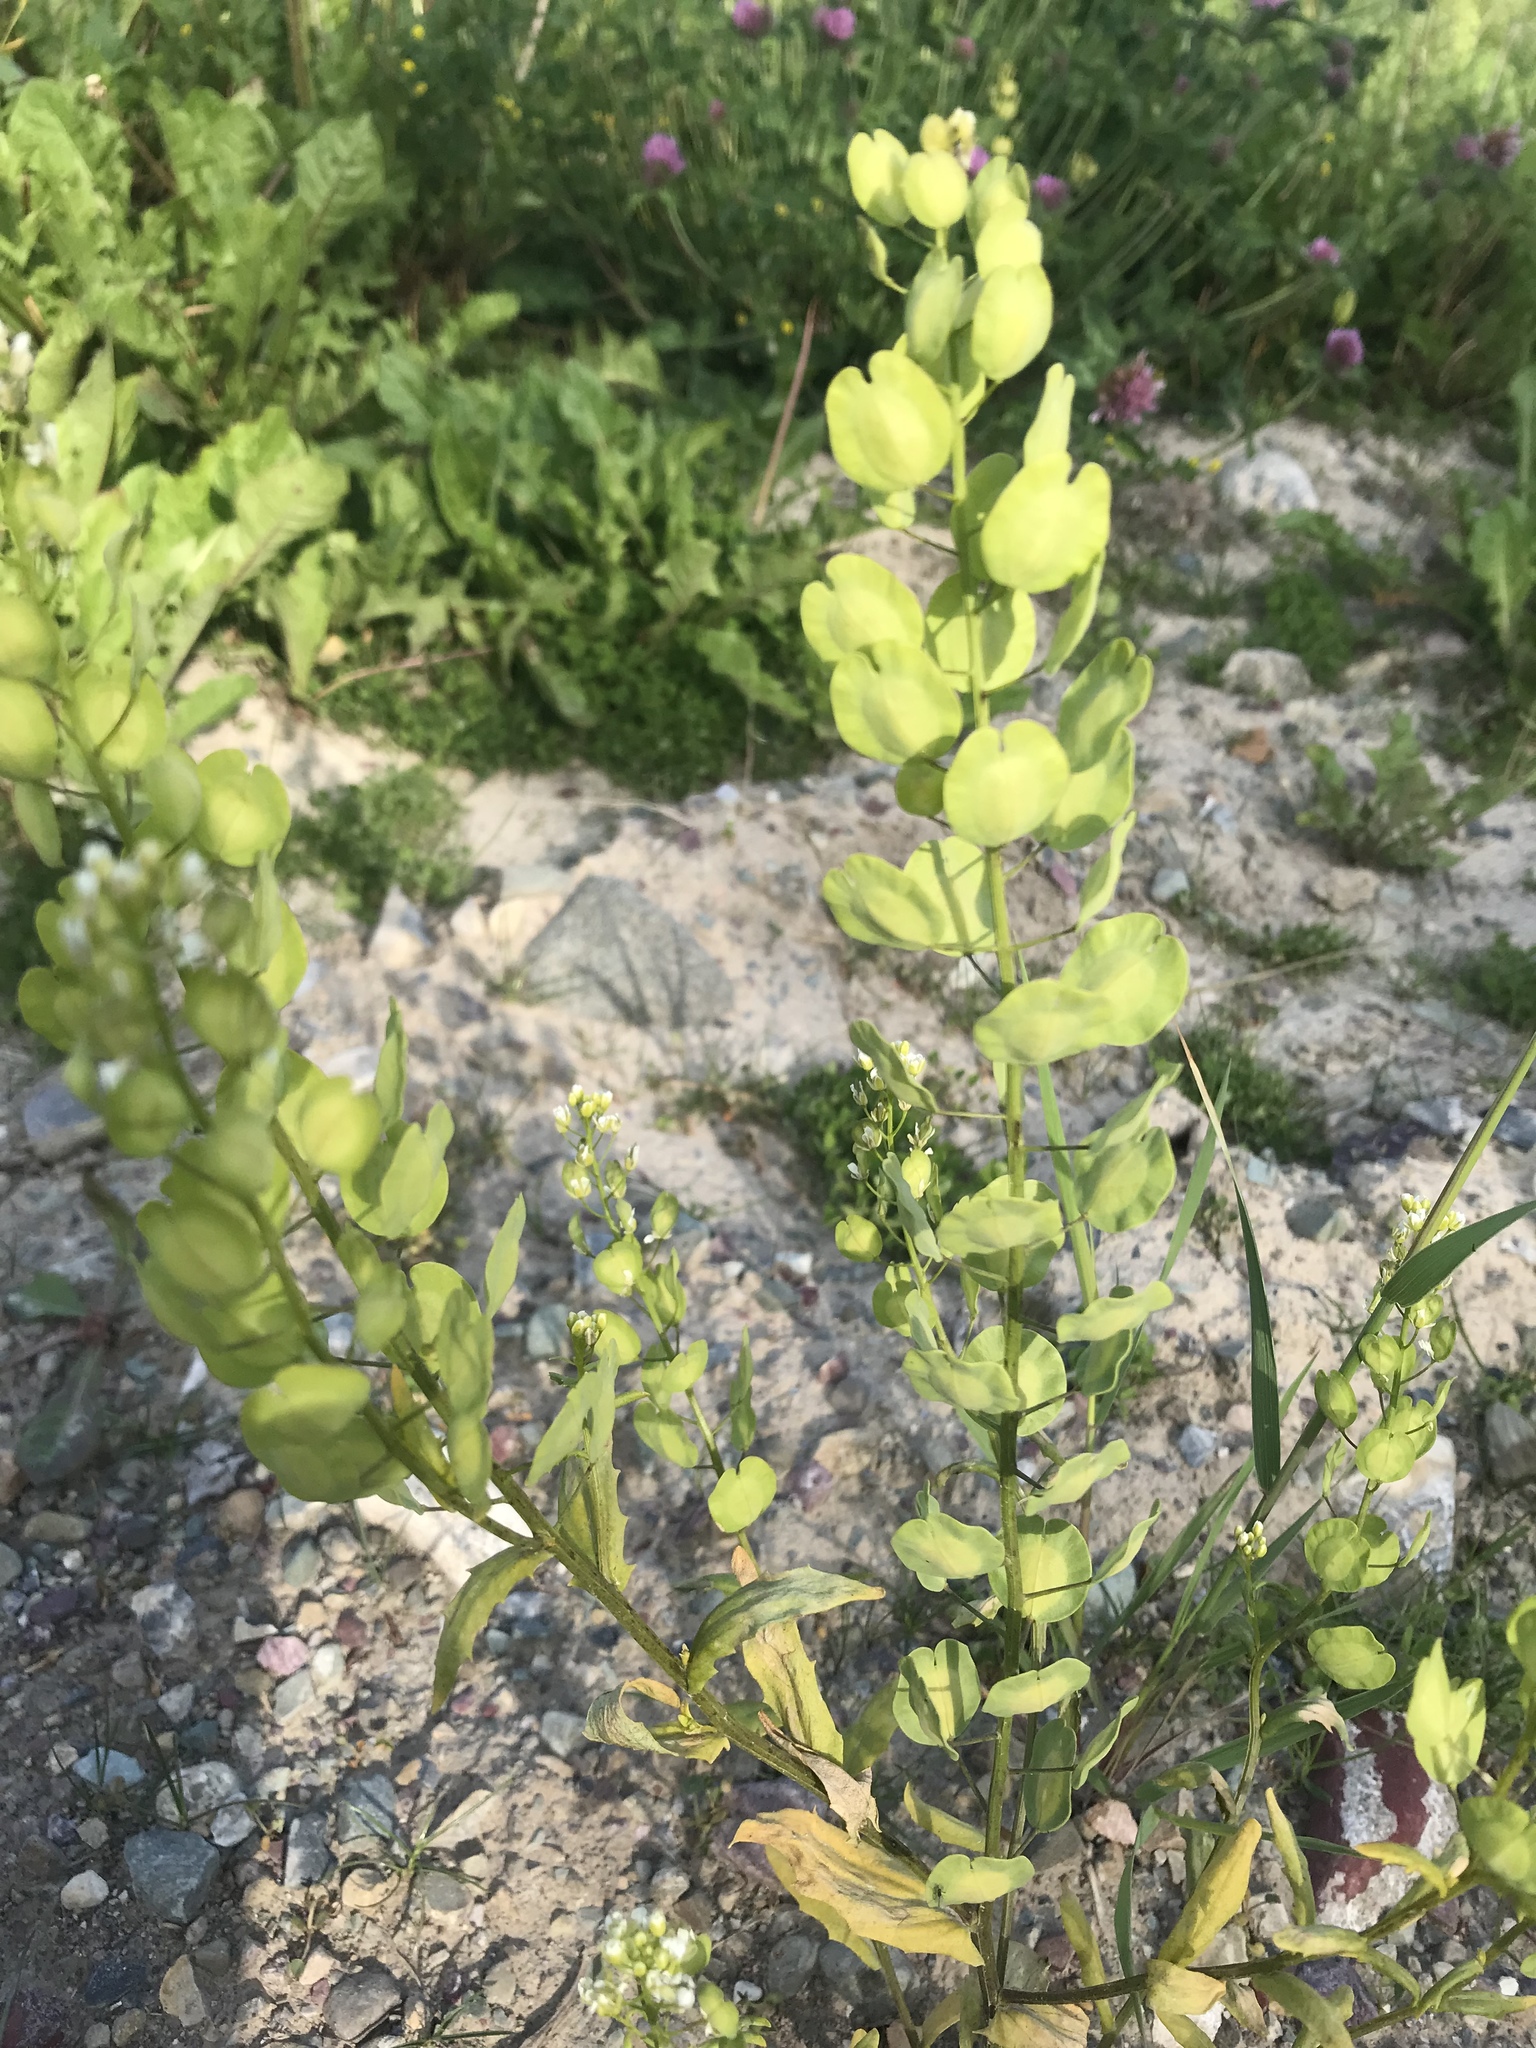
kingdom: Plantae
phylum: Tracheophyta
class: Magnoliopsida
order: Brassicales
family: Brassicaceae
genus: Thlaspi
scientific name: Thlaspi arvense
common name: Field pennycress
